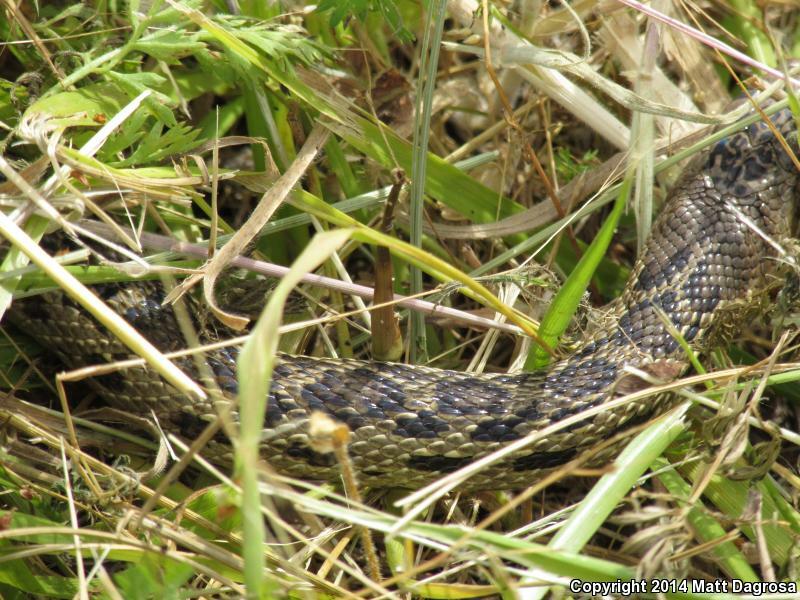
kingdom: Animalia
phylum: Chordata
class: Squamata
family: Colubridae
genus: Pituophis
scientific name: Pituophis catenifer
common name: Gopher snake
